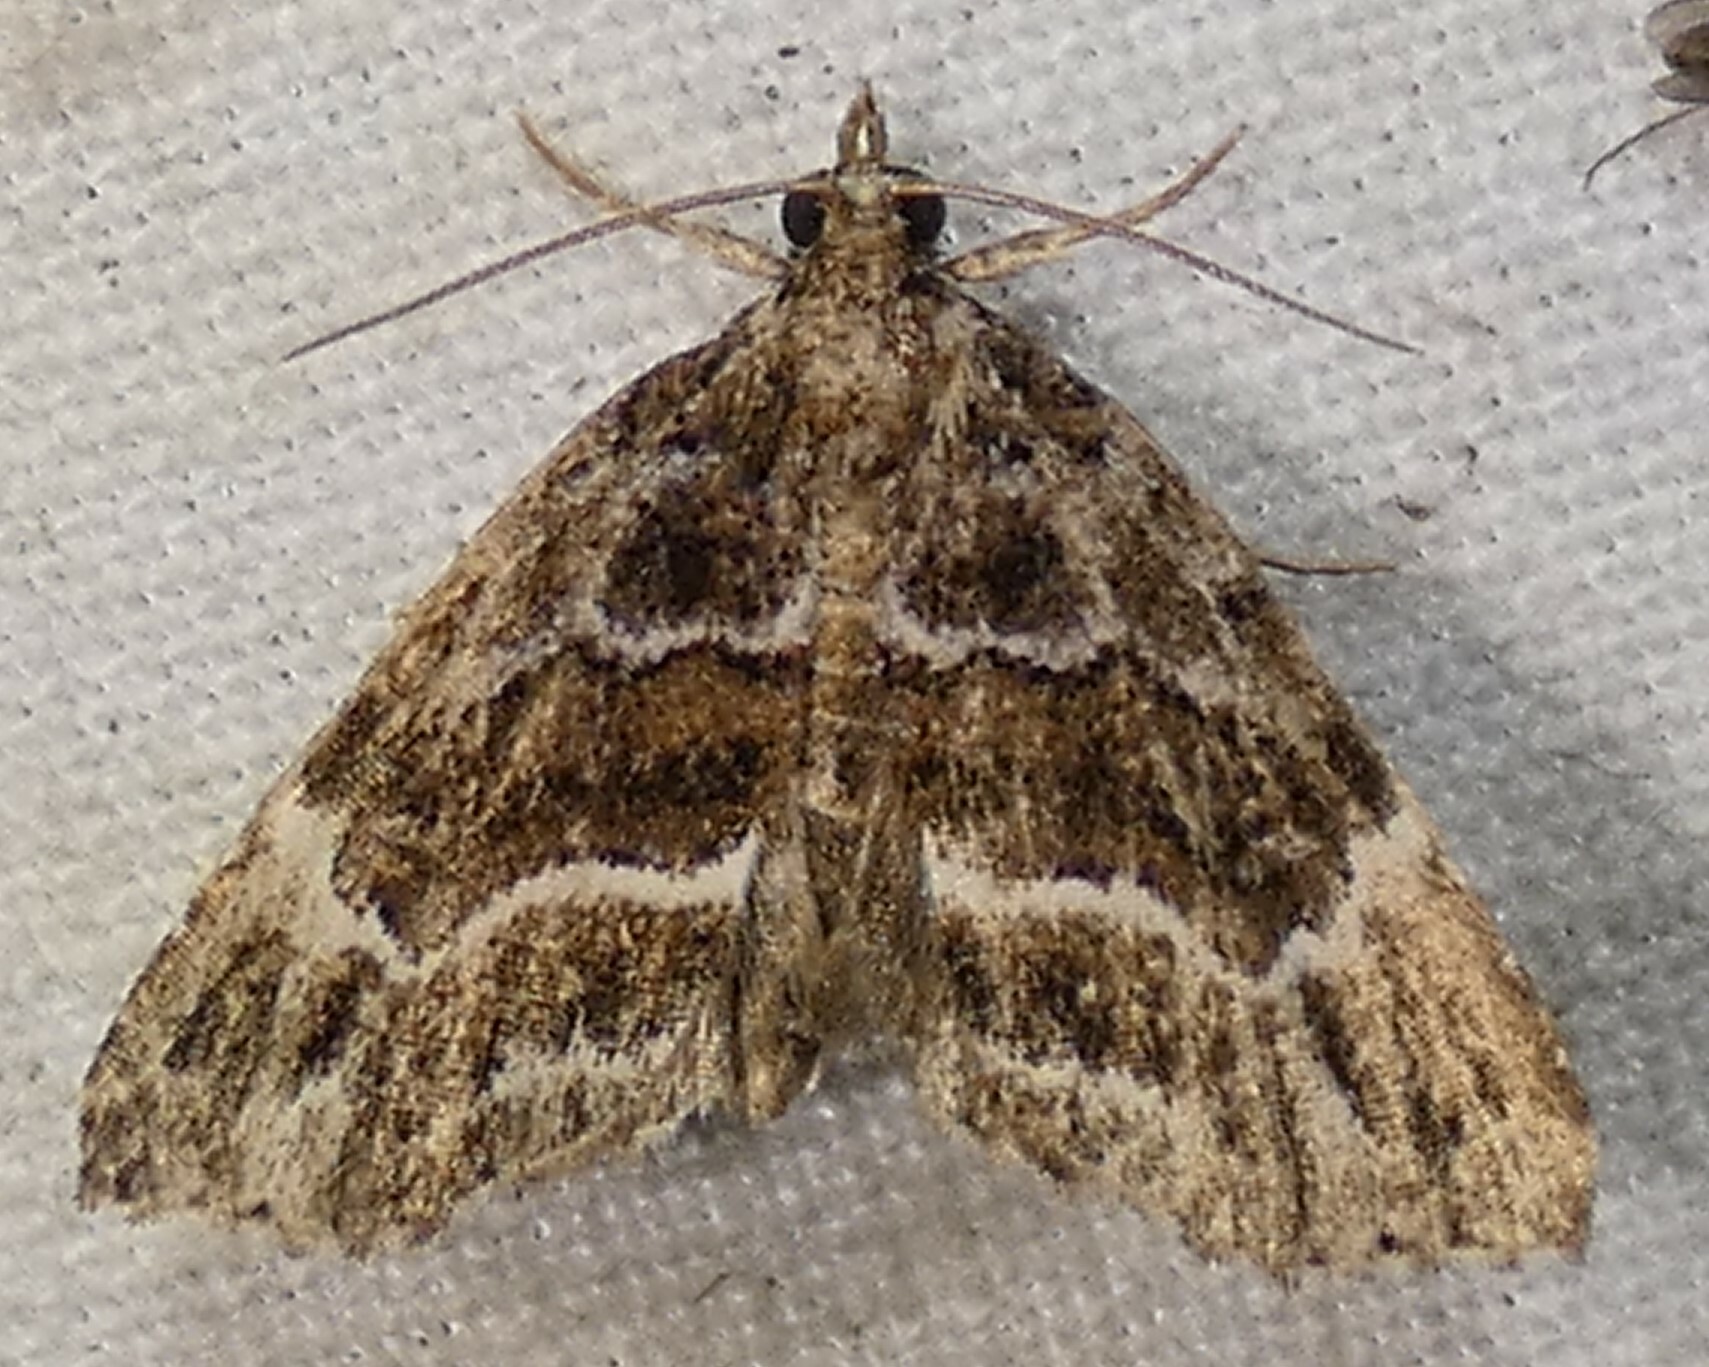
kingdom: Animalia
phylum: Arthropoda
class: Insecta
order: Lepidoptera
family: Erebidae
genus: Cutina
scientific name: Cutina arcuata
